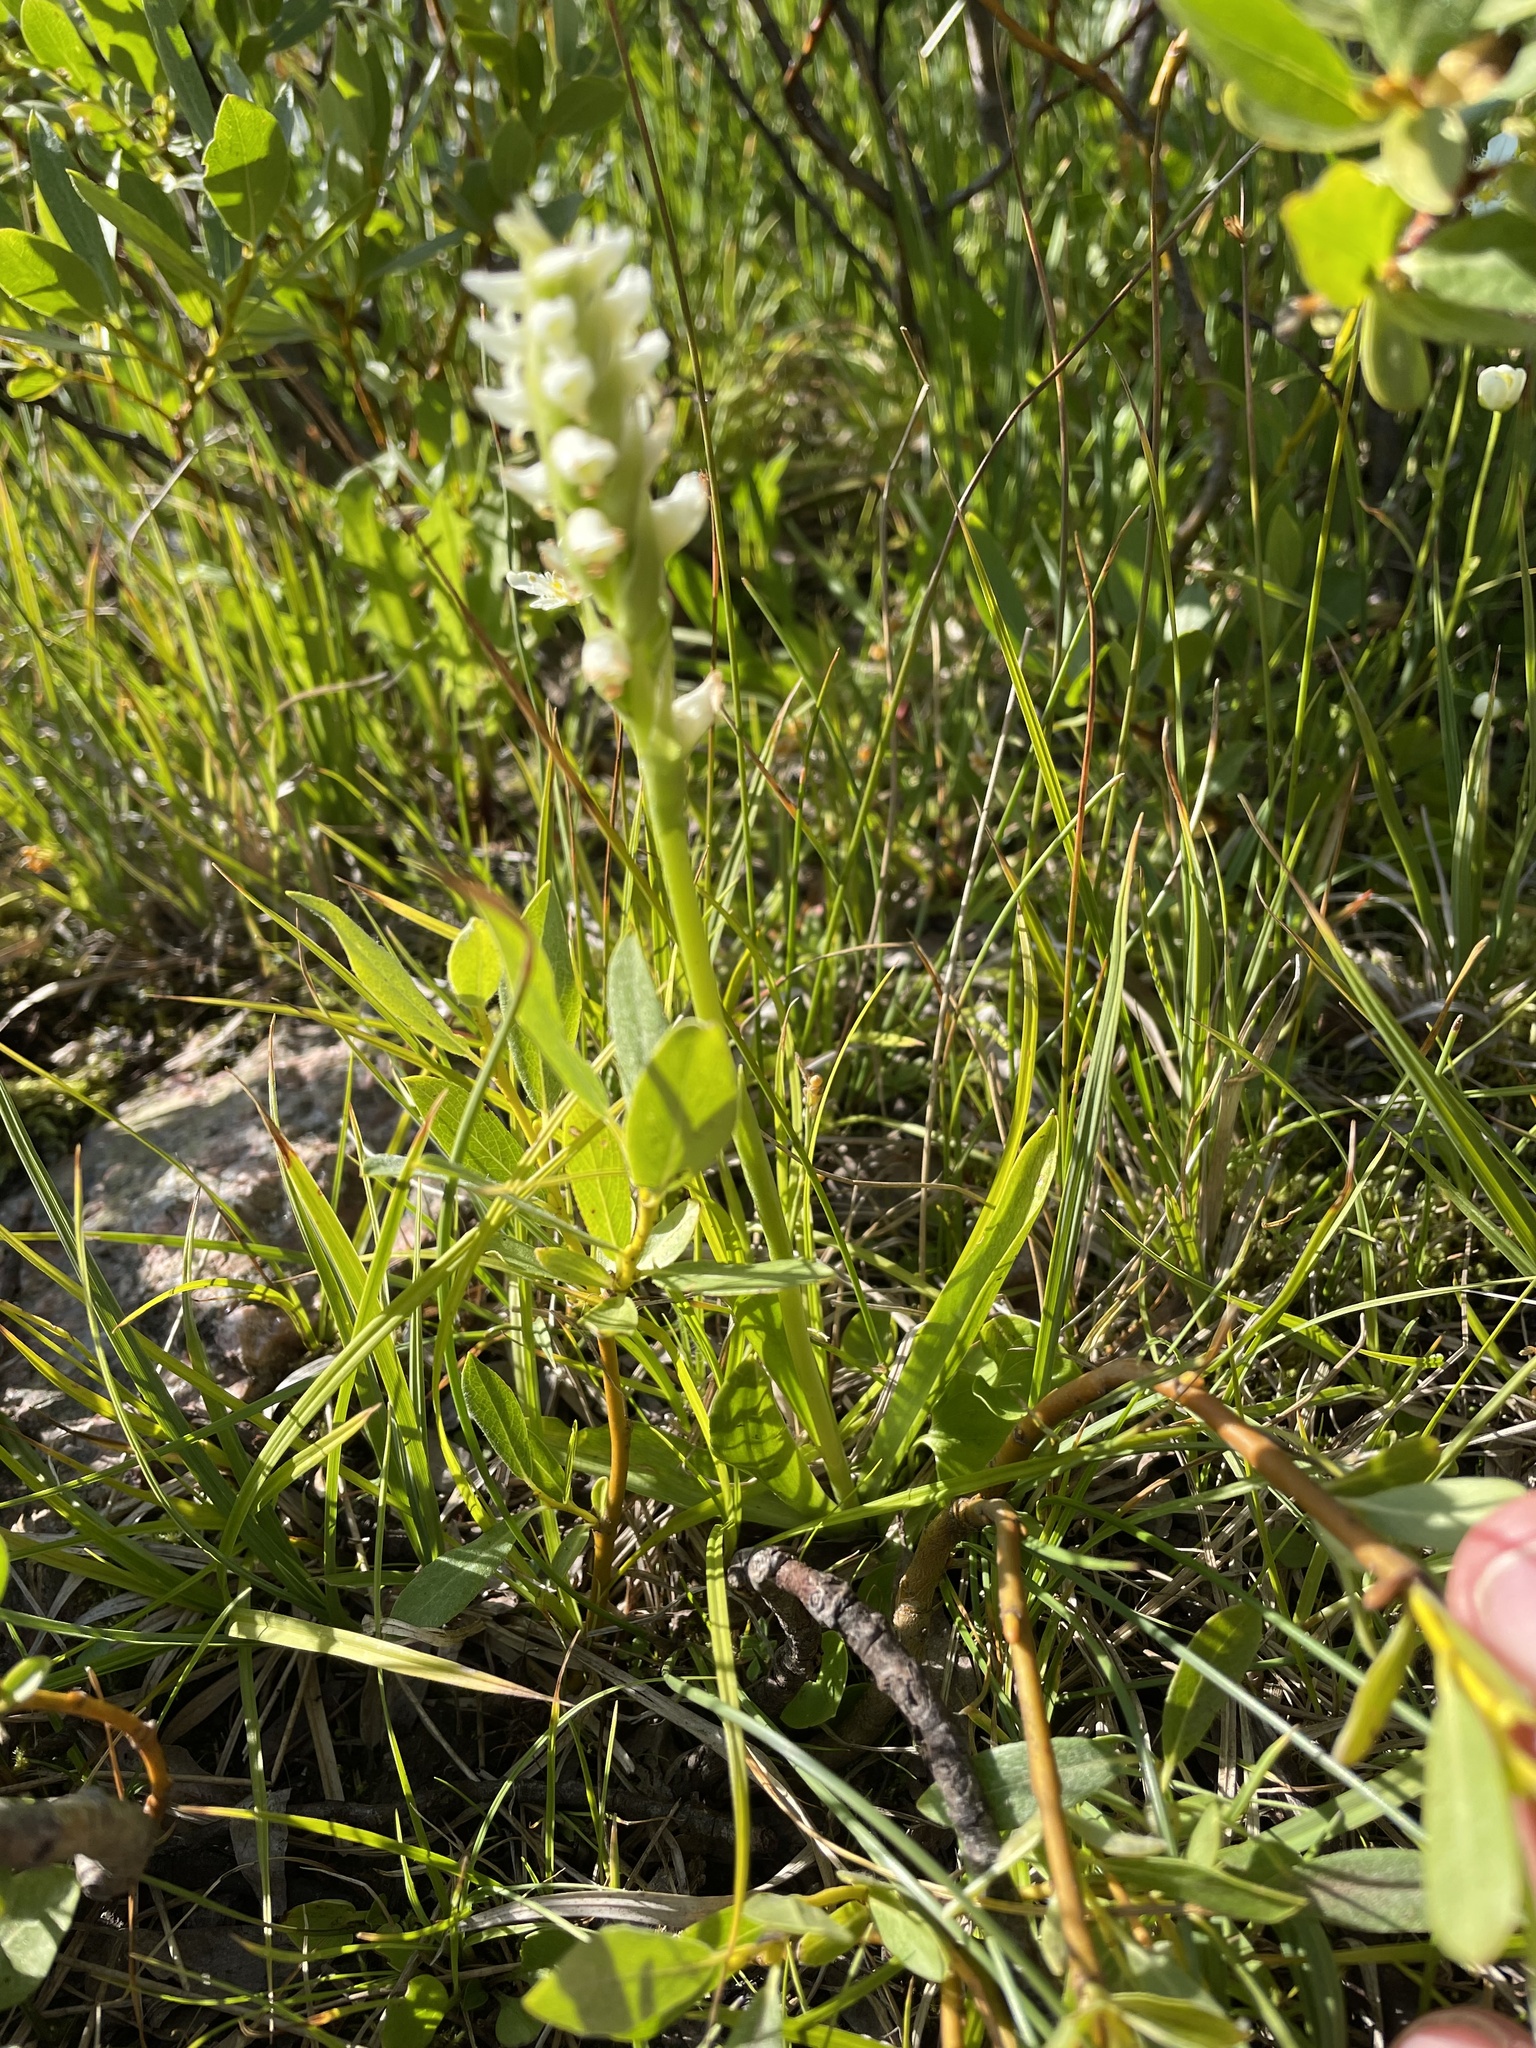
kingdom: Plantae
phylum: Tracheophyta
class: Liliopsida
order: Asparagales
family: Orchidaceae
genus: Spiranthes
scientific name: Spiranthes romanzoffiana
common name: Irish lady's-tresses
